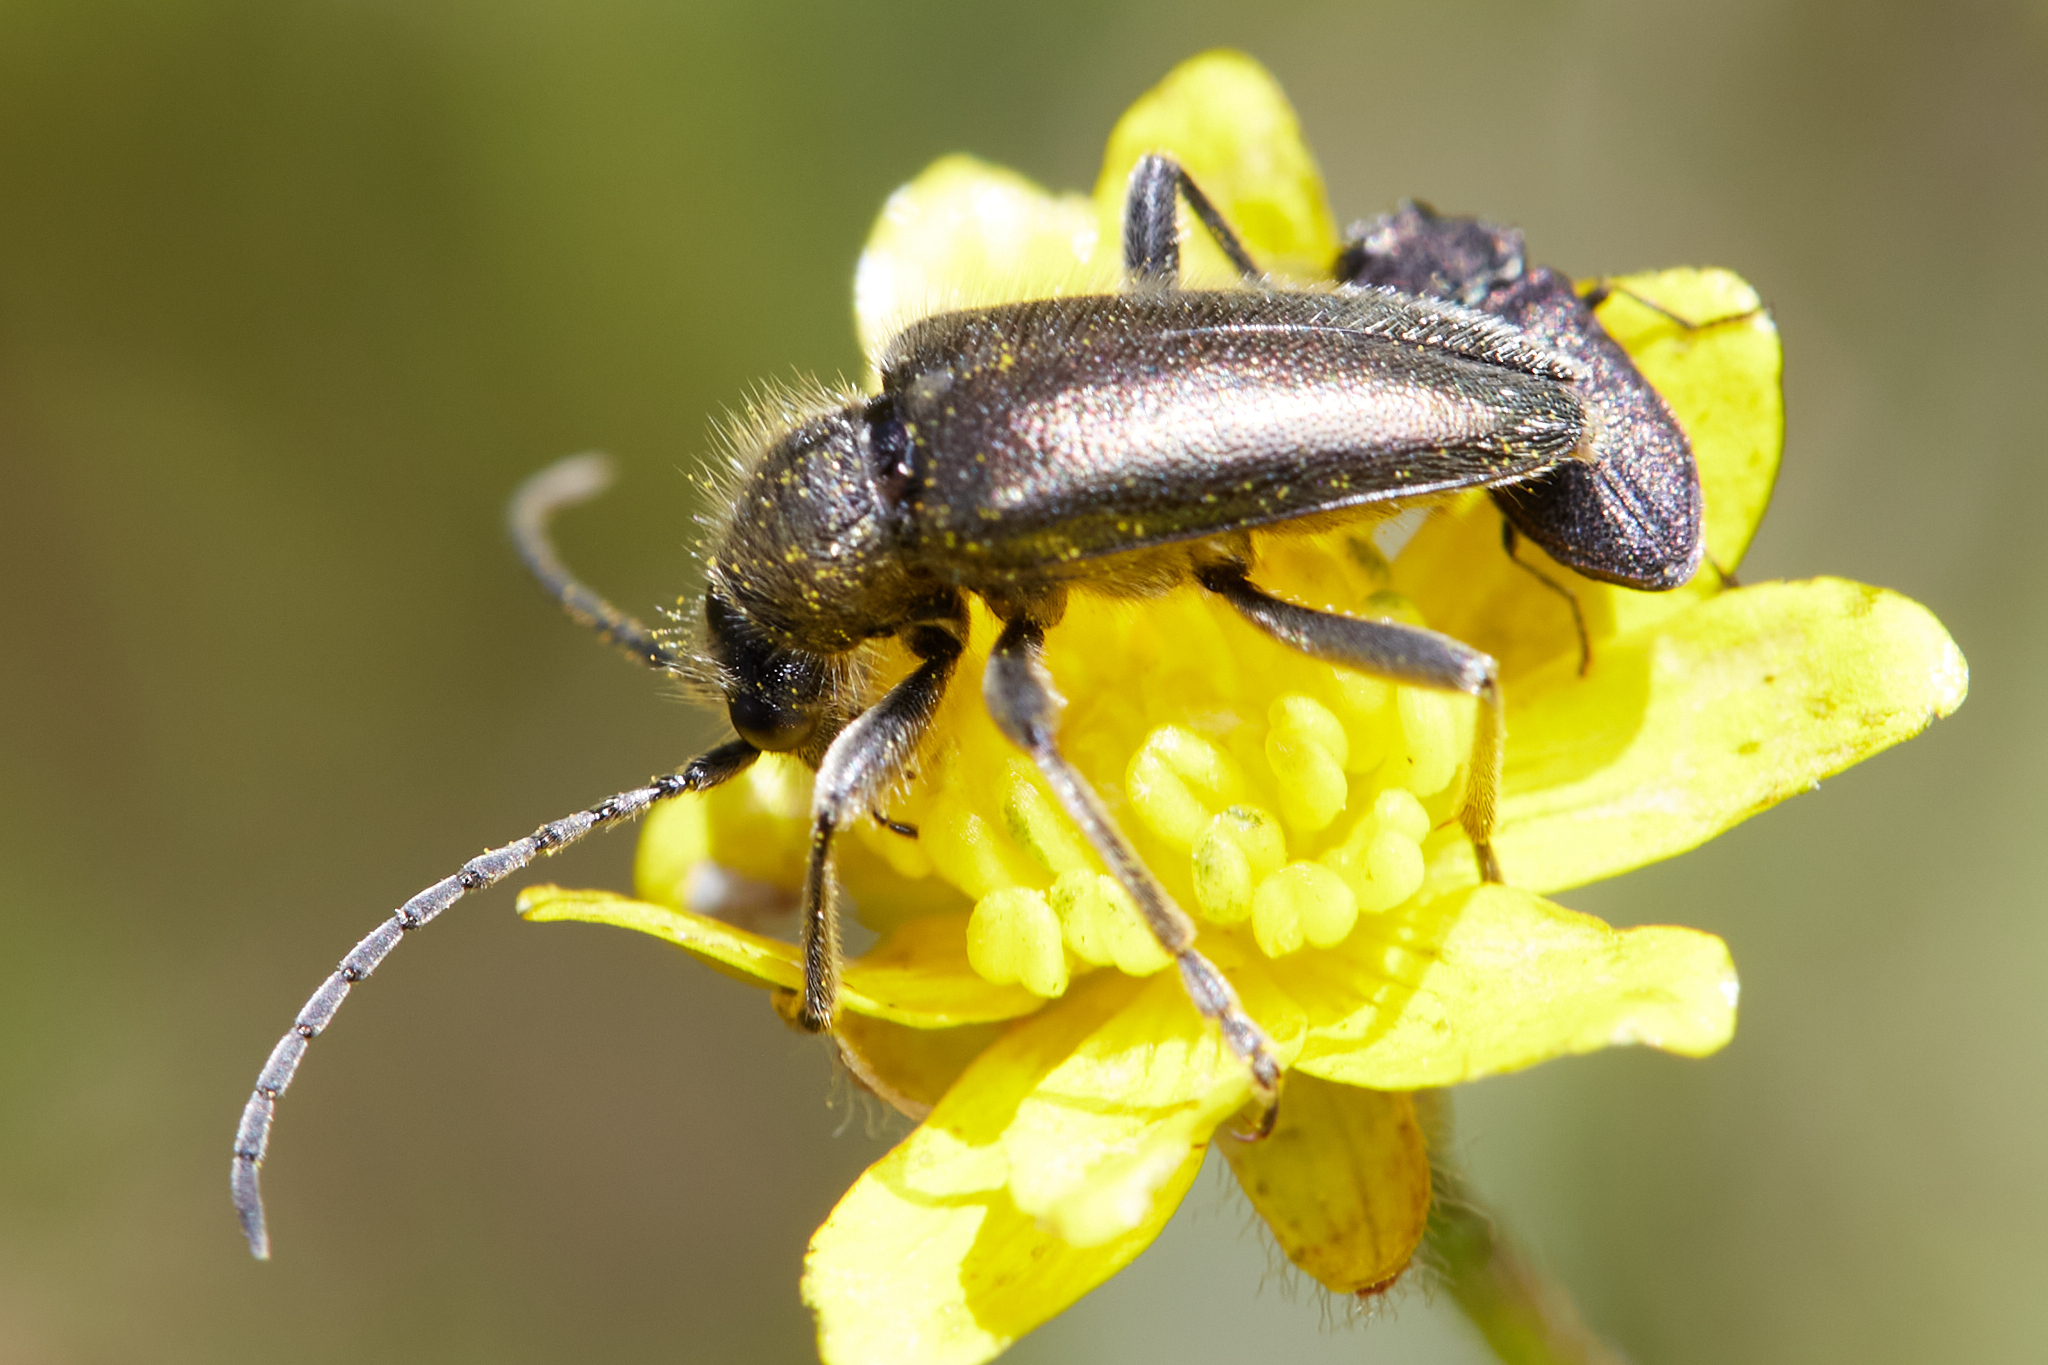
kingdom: Animalia
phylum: Arthropoda
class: Insecta
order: Coleoptera
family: Cerambycidae
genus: Brachysomida
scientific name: Brachysomida californica
